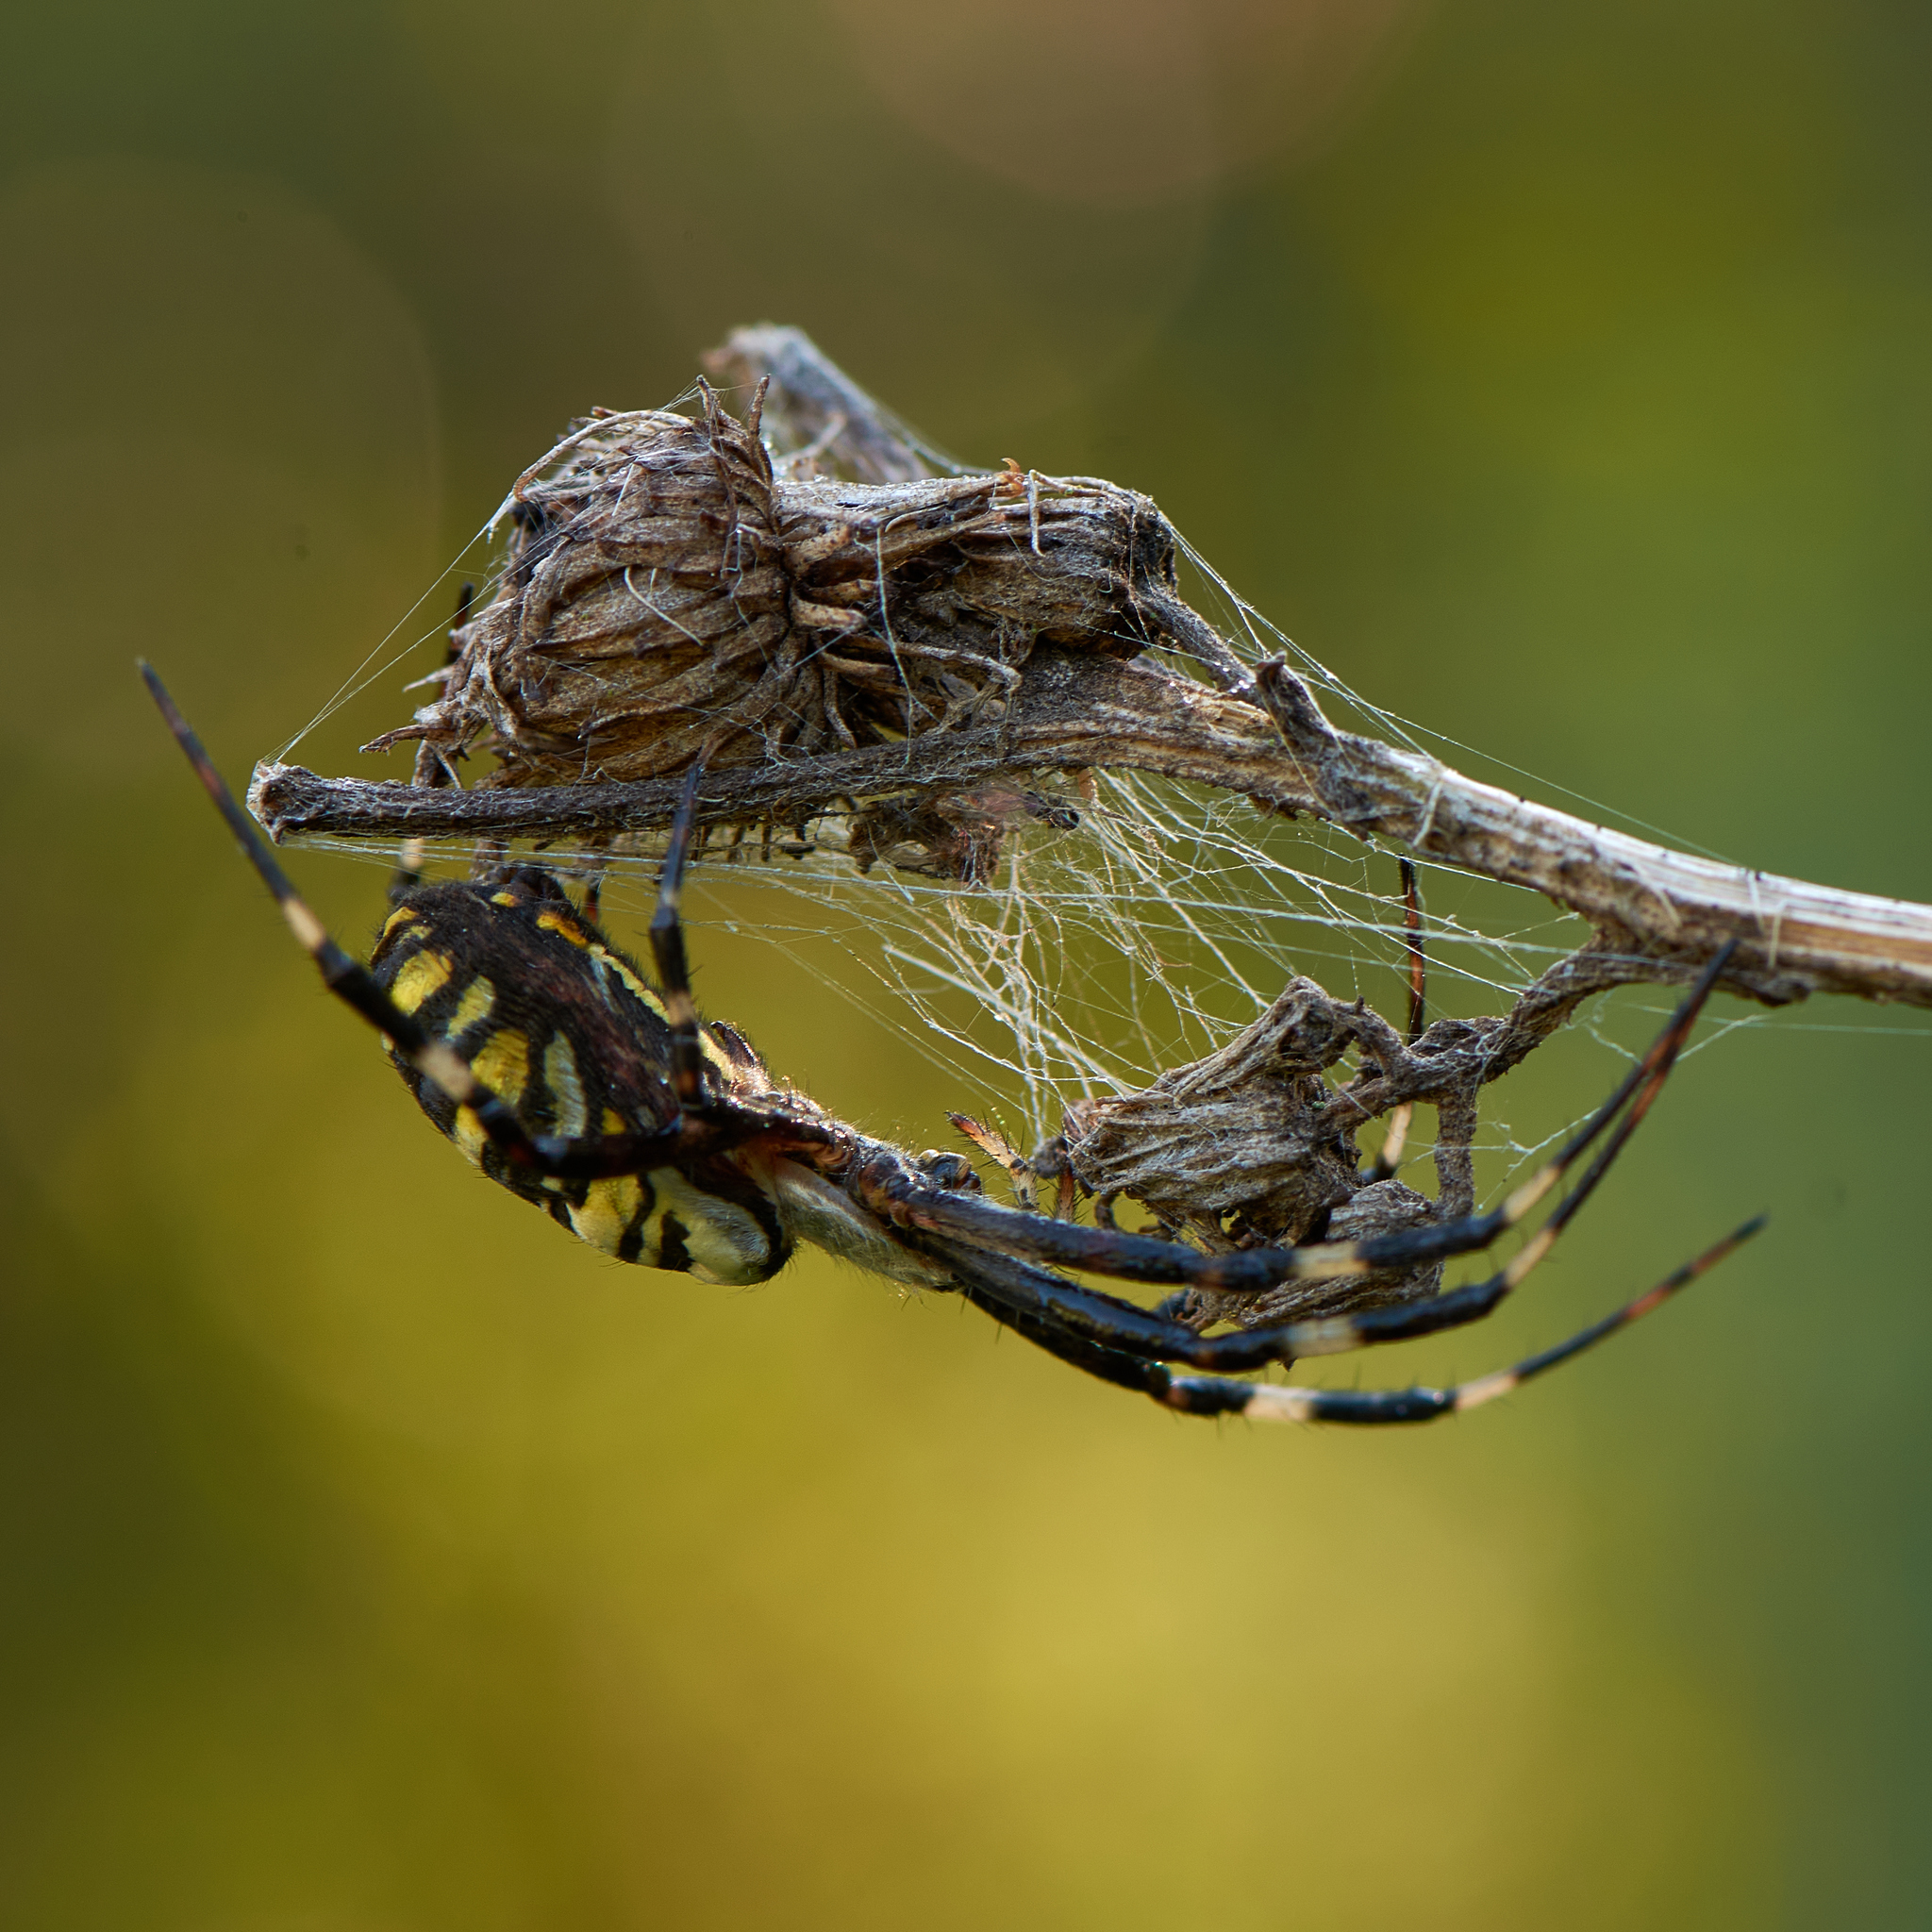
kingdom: Animalia
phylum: Arthropoda
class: Arachnida
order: Araneae
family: Araneidae
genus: Argiope
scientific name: Argiope bruennichi
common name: Wasp spider
